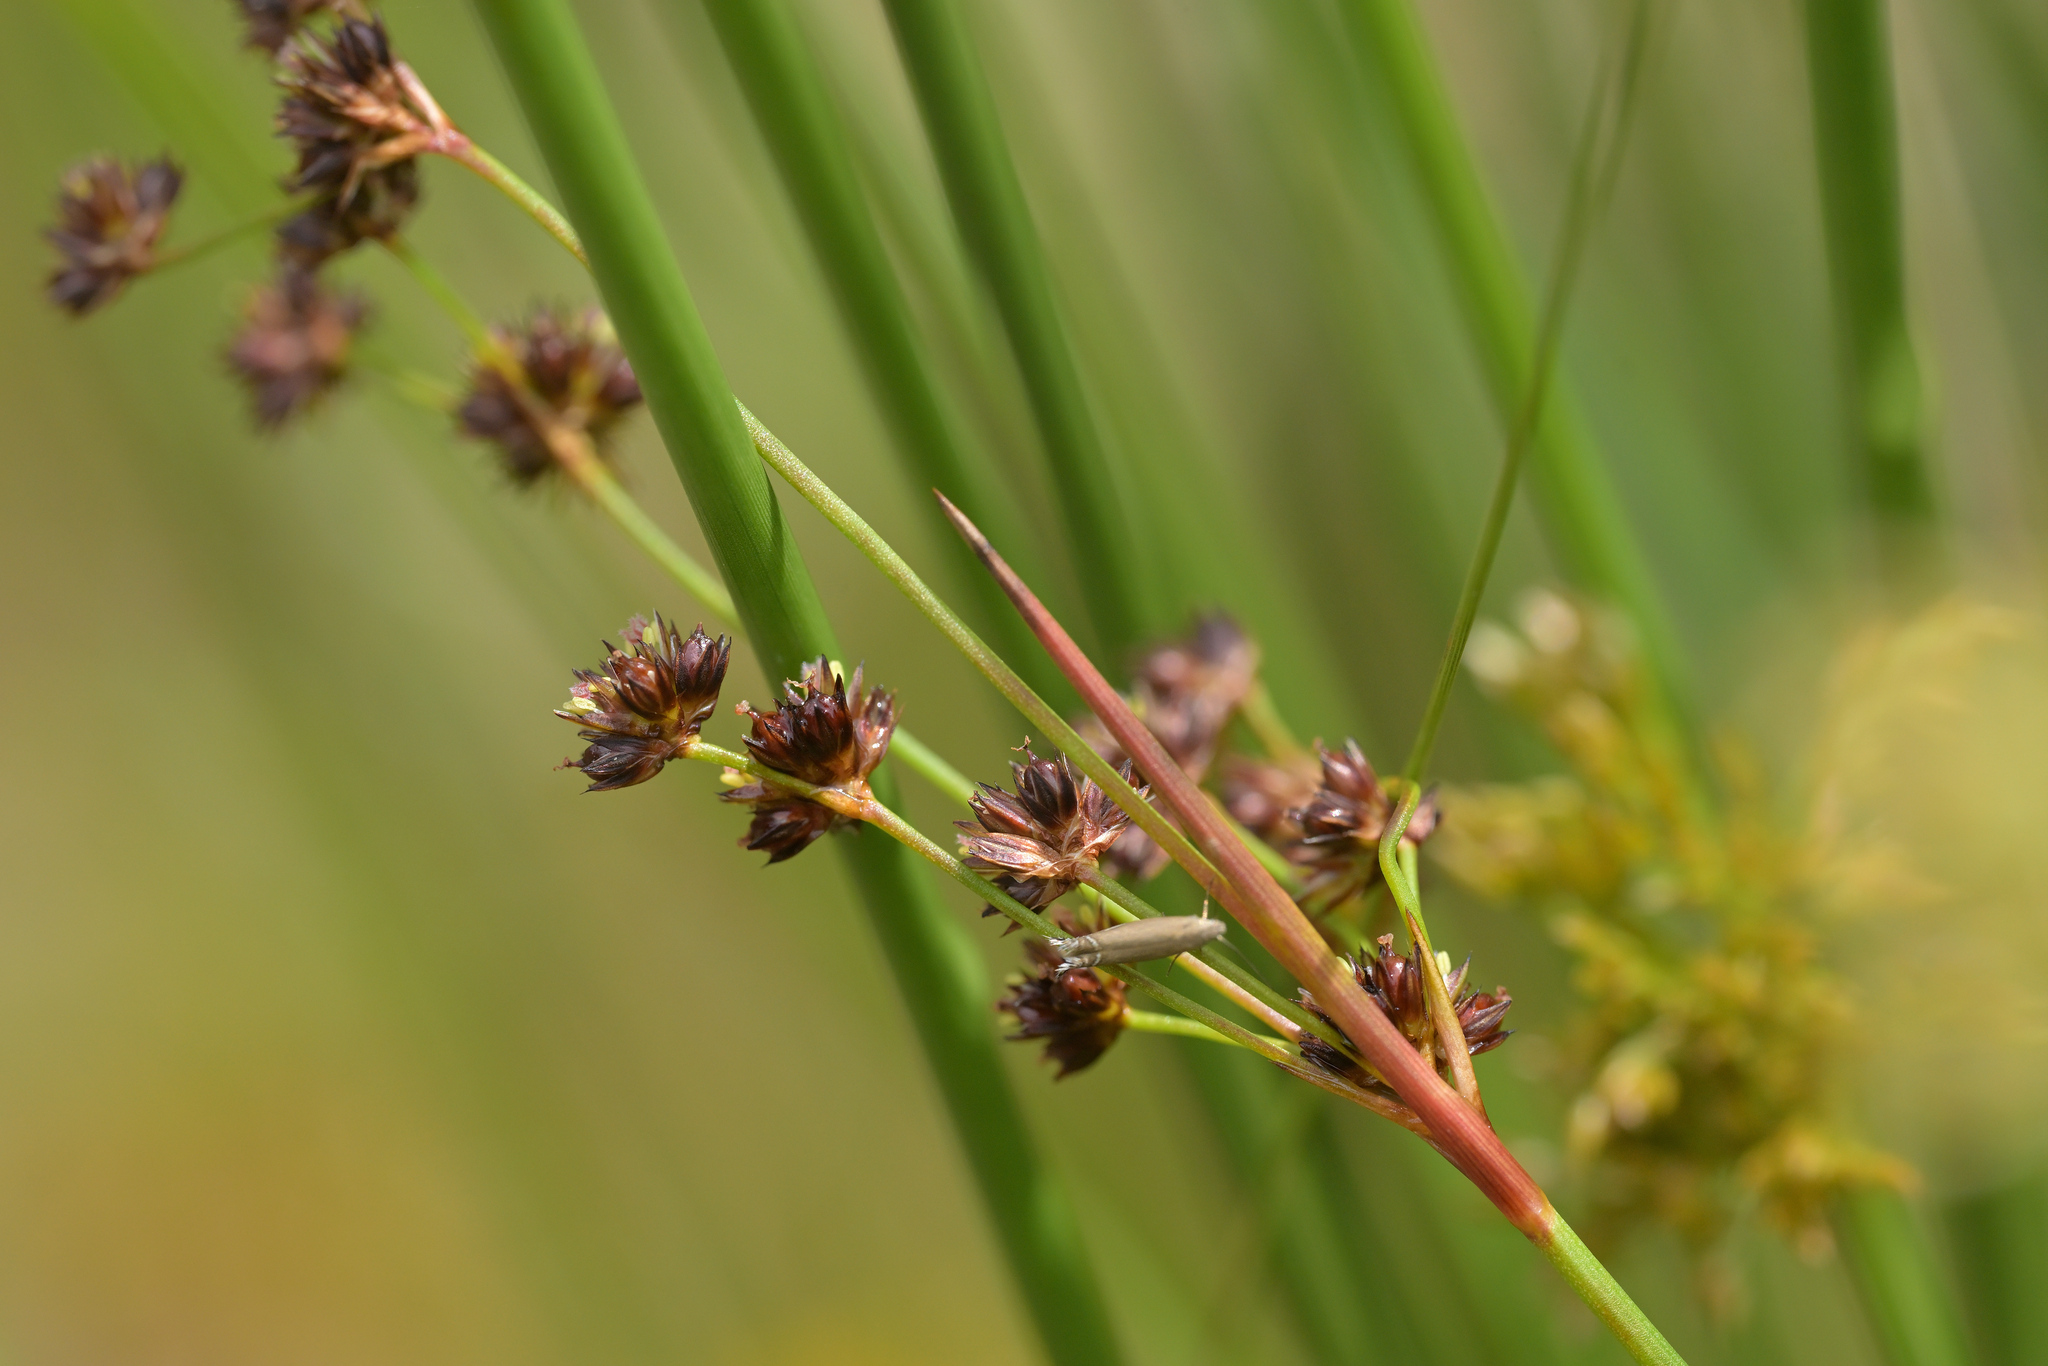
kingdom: Plantae
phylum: Tracheophyta
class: Liliopsida
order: Poales
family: Juncaceae
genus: Juncus
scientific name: Juncus planifolius
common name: Broadleaf rush
